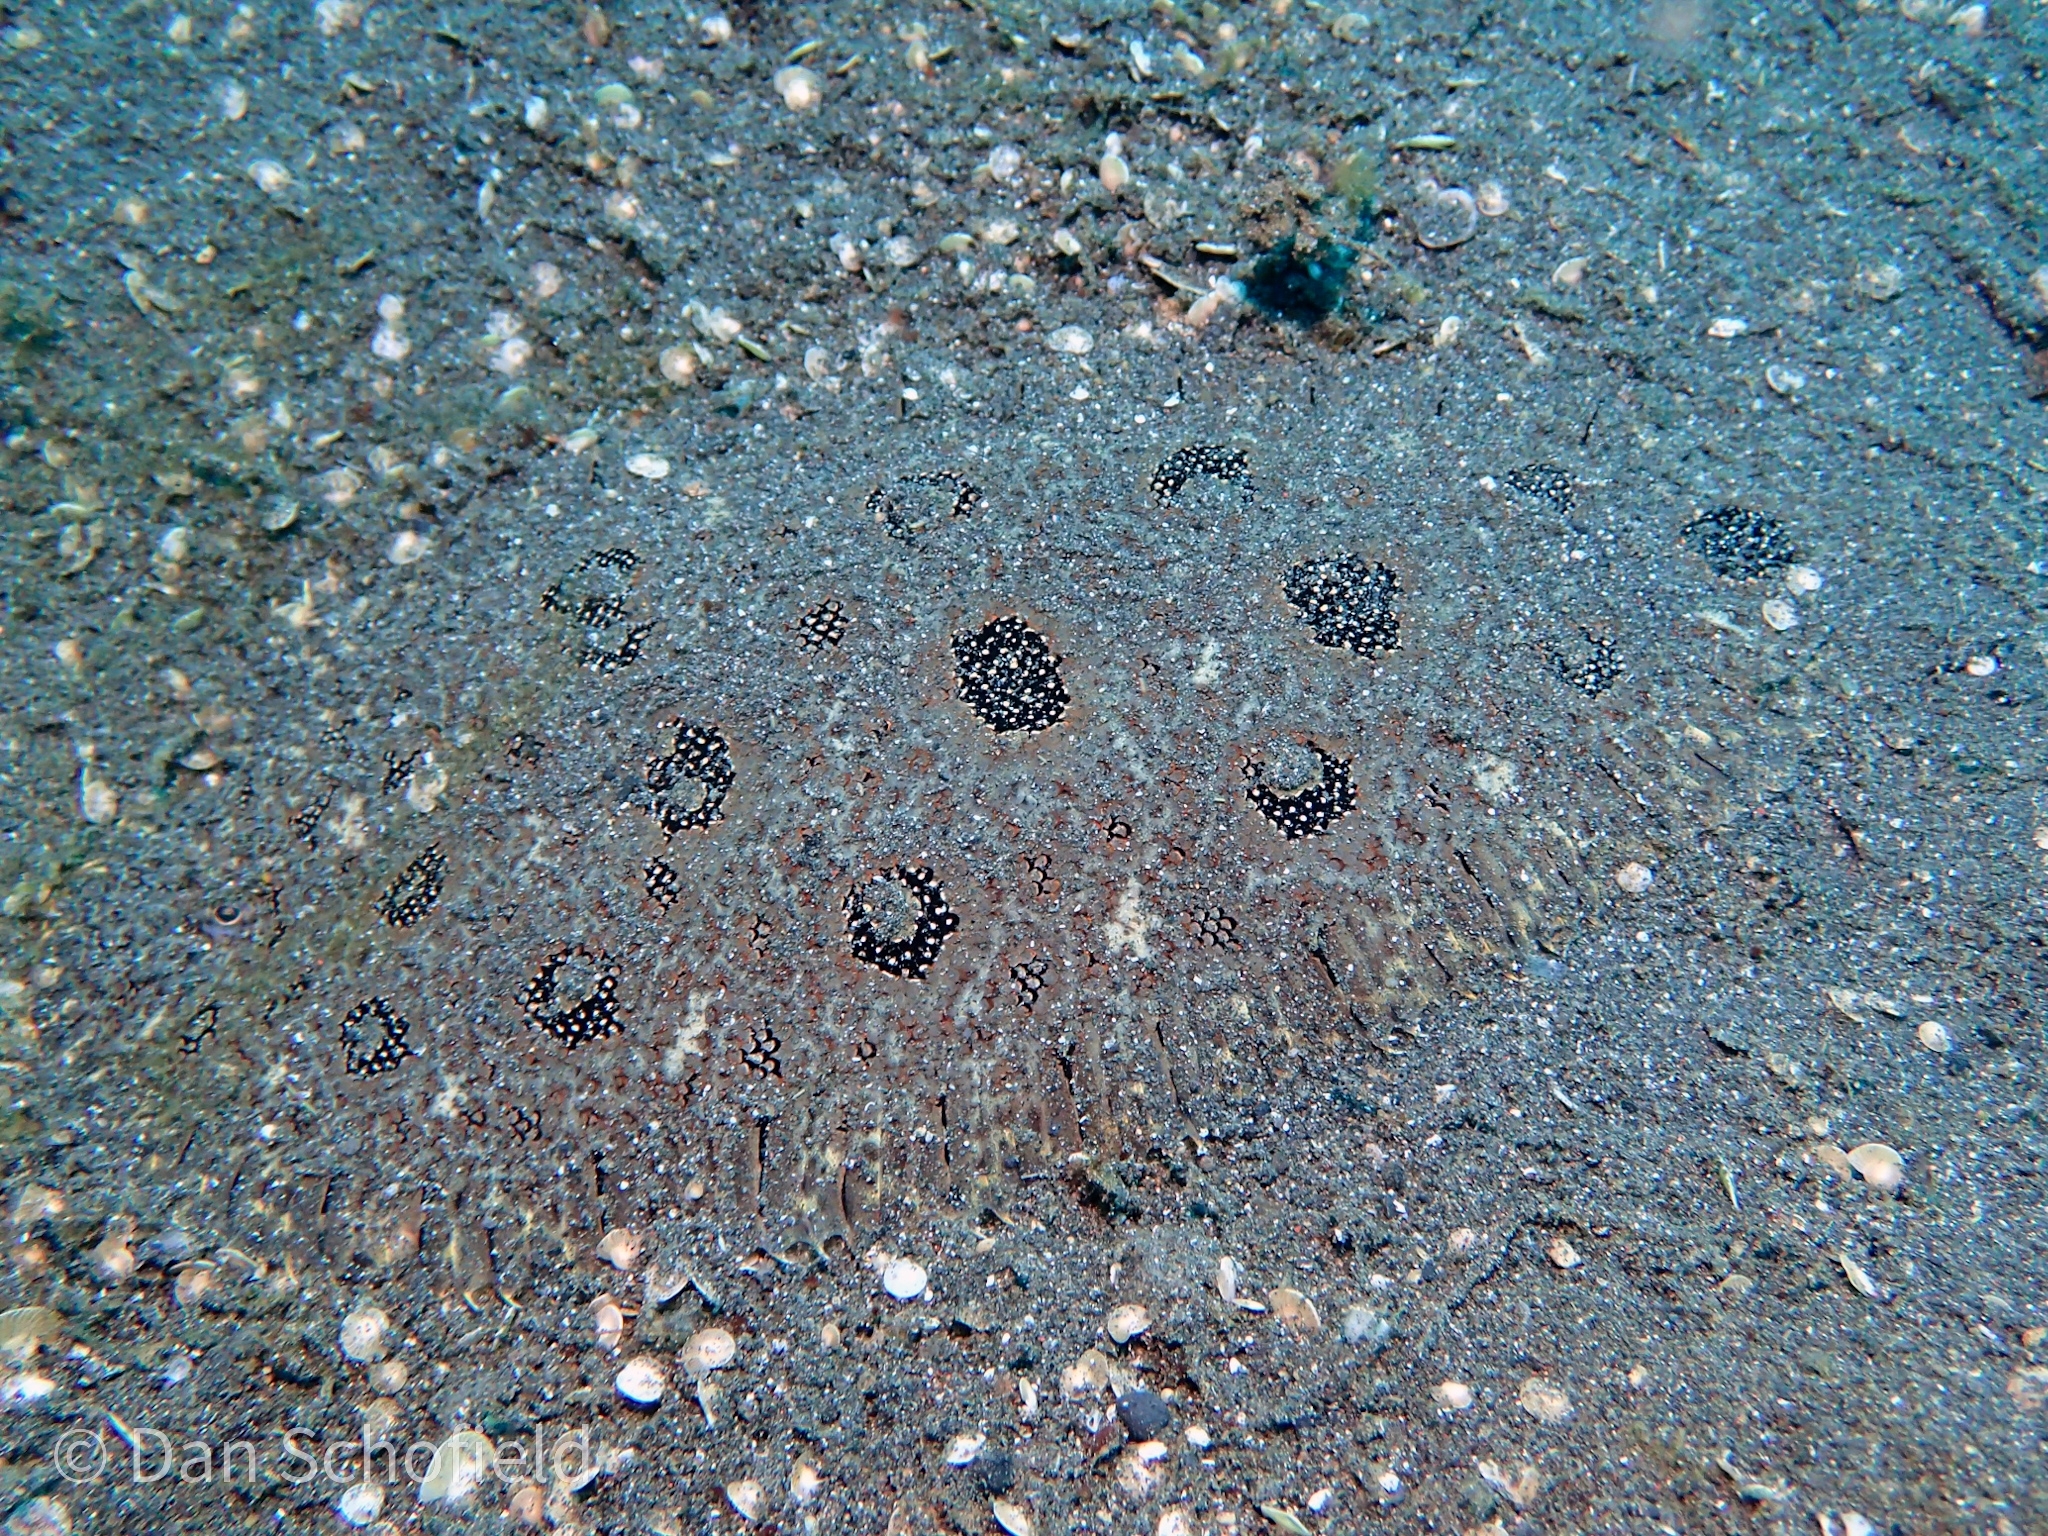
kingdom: Animalia
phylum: Chordata
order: Pleuronectiformes
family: Soleidae
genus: Heteromycteris
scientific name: Heteromycteris hartzfeldii
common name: Hartzfeld’s sole
